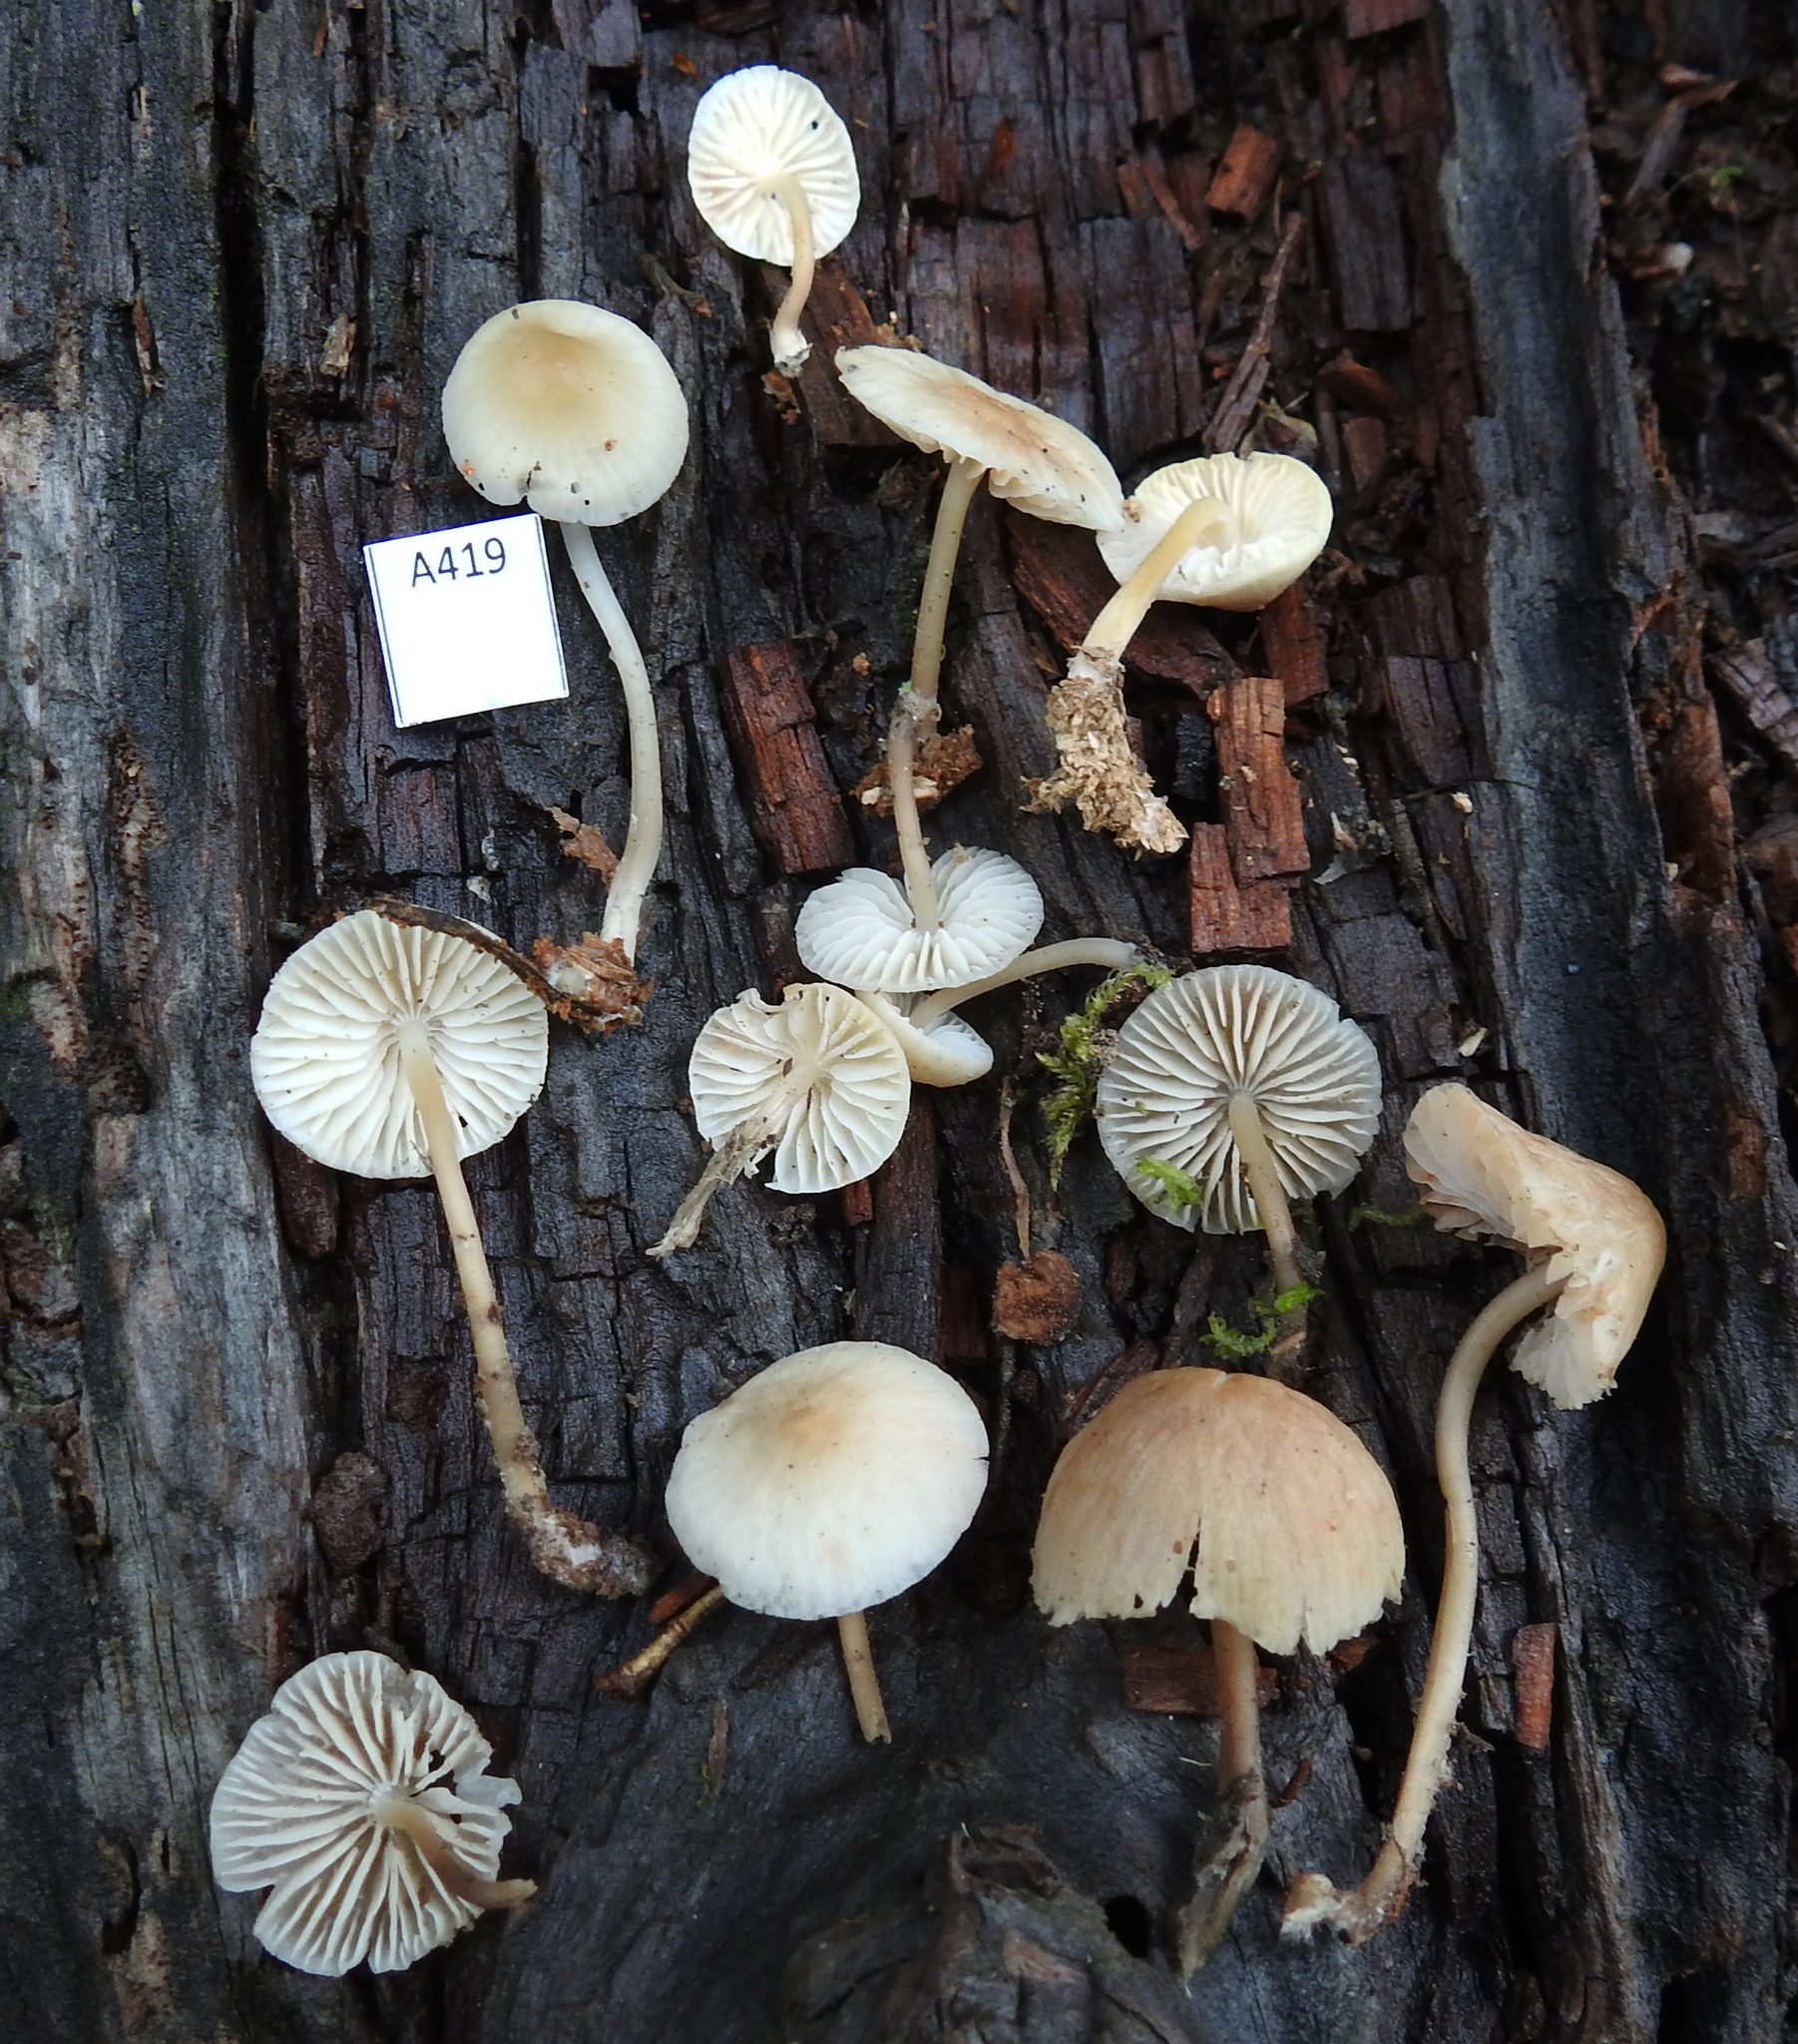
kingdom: Fungi
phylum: Basidiomycota
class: Agaricomycetes
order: Agaricales
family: Mycenaceae
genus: Mycena
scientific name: Mycena galericulata
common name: Bonnet mycena
